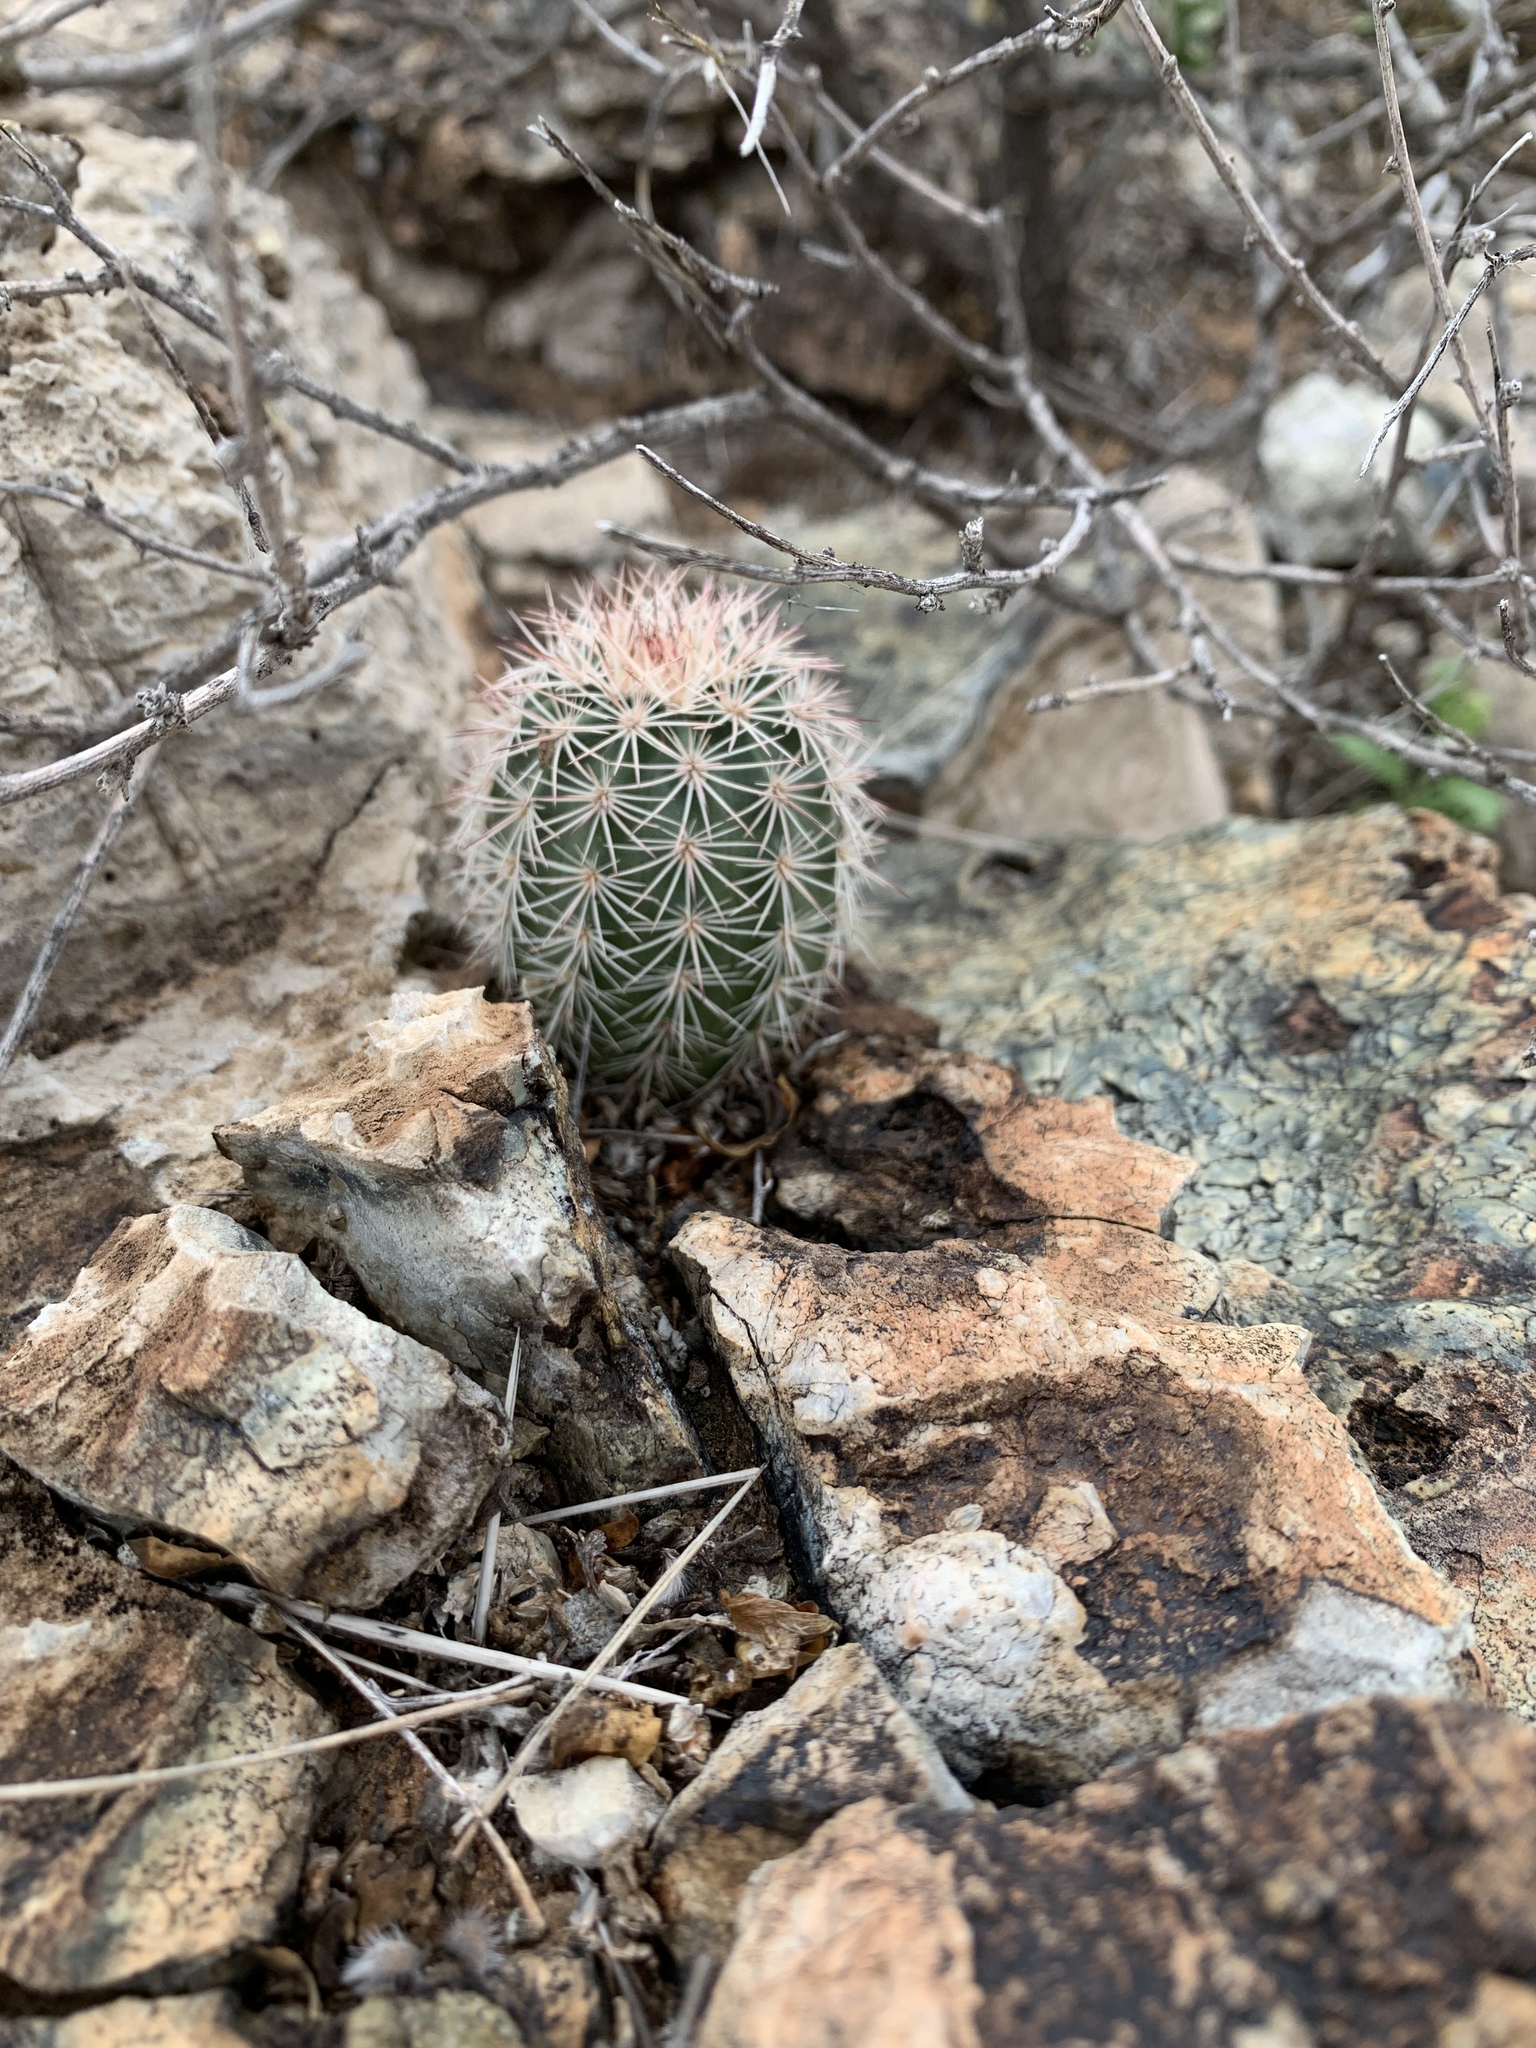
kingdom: Plantae
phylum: Tracheophyta
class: Magnoliopsida
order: Caryophyllales
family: Cactaceae
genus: Echinocereus
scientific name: Echinocereus dasyacanthus
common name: Spiny hedgehog cactus
